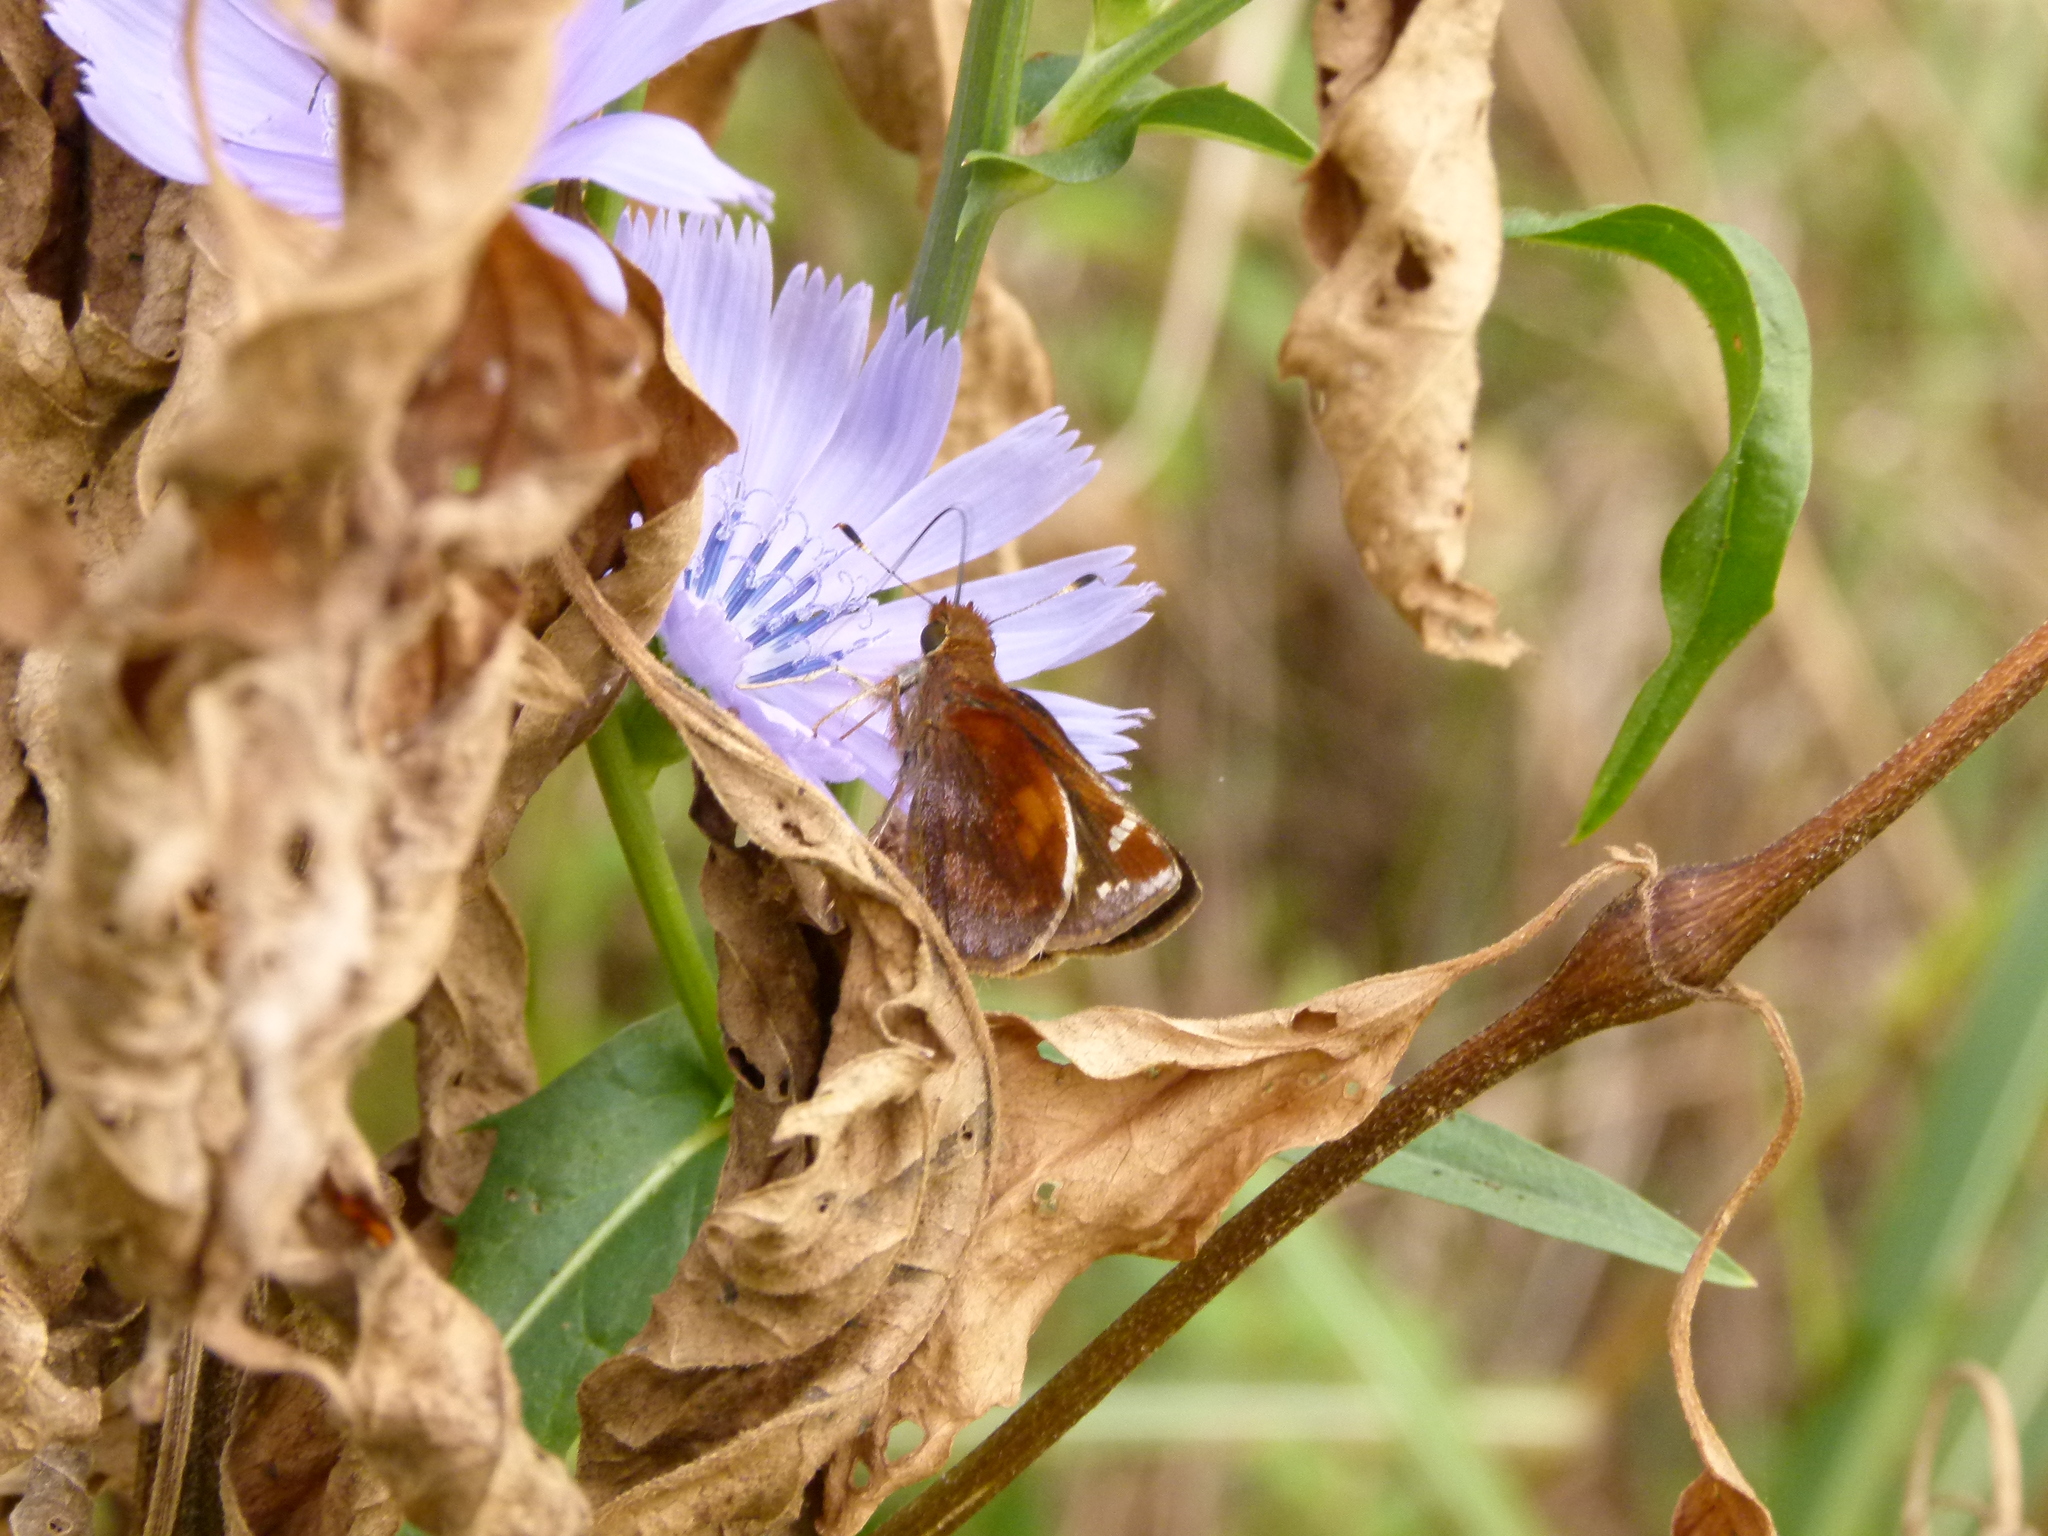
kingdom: Animalia
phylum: Arthropoda
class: Insecta
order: Lepidoptera
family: Hesperiidae
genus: Lon
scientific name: Lon zabulon
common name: Zabulon skipper
